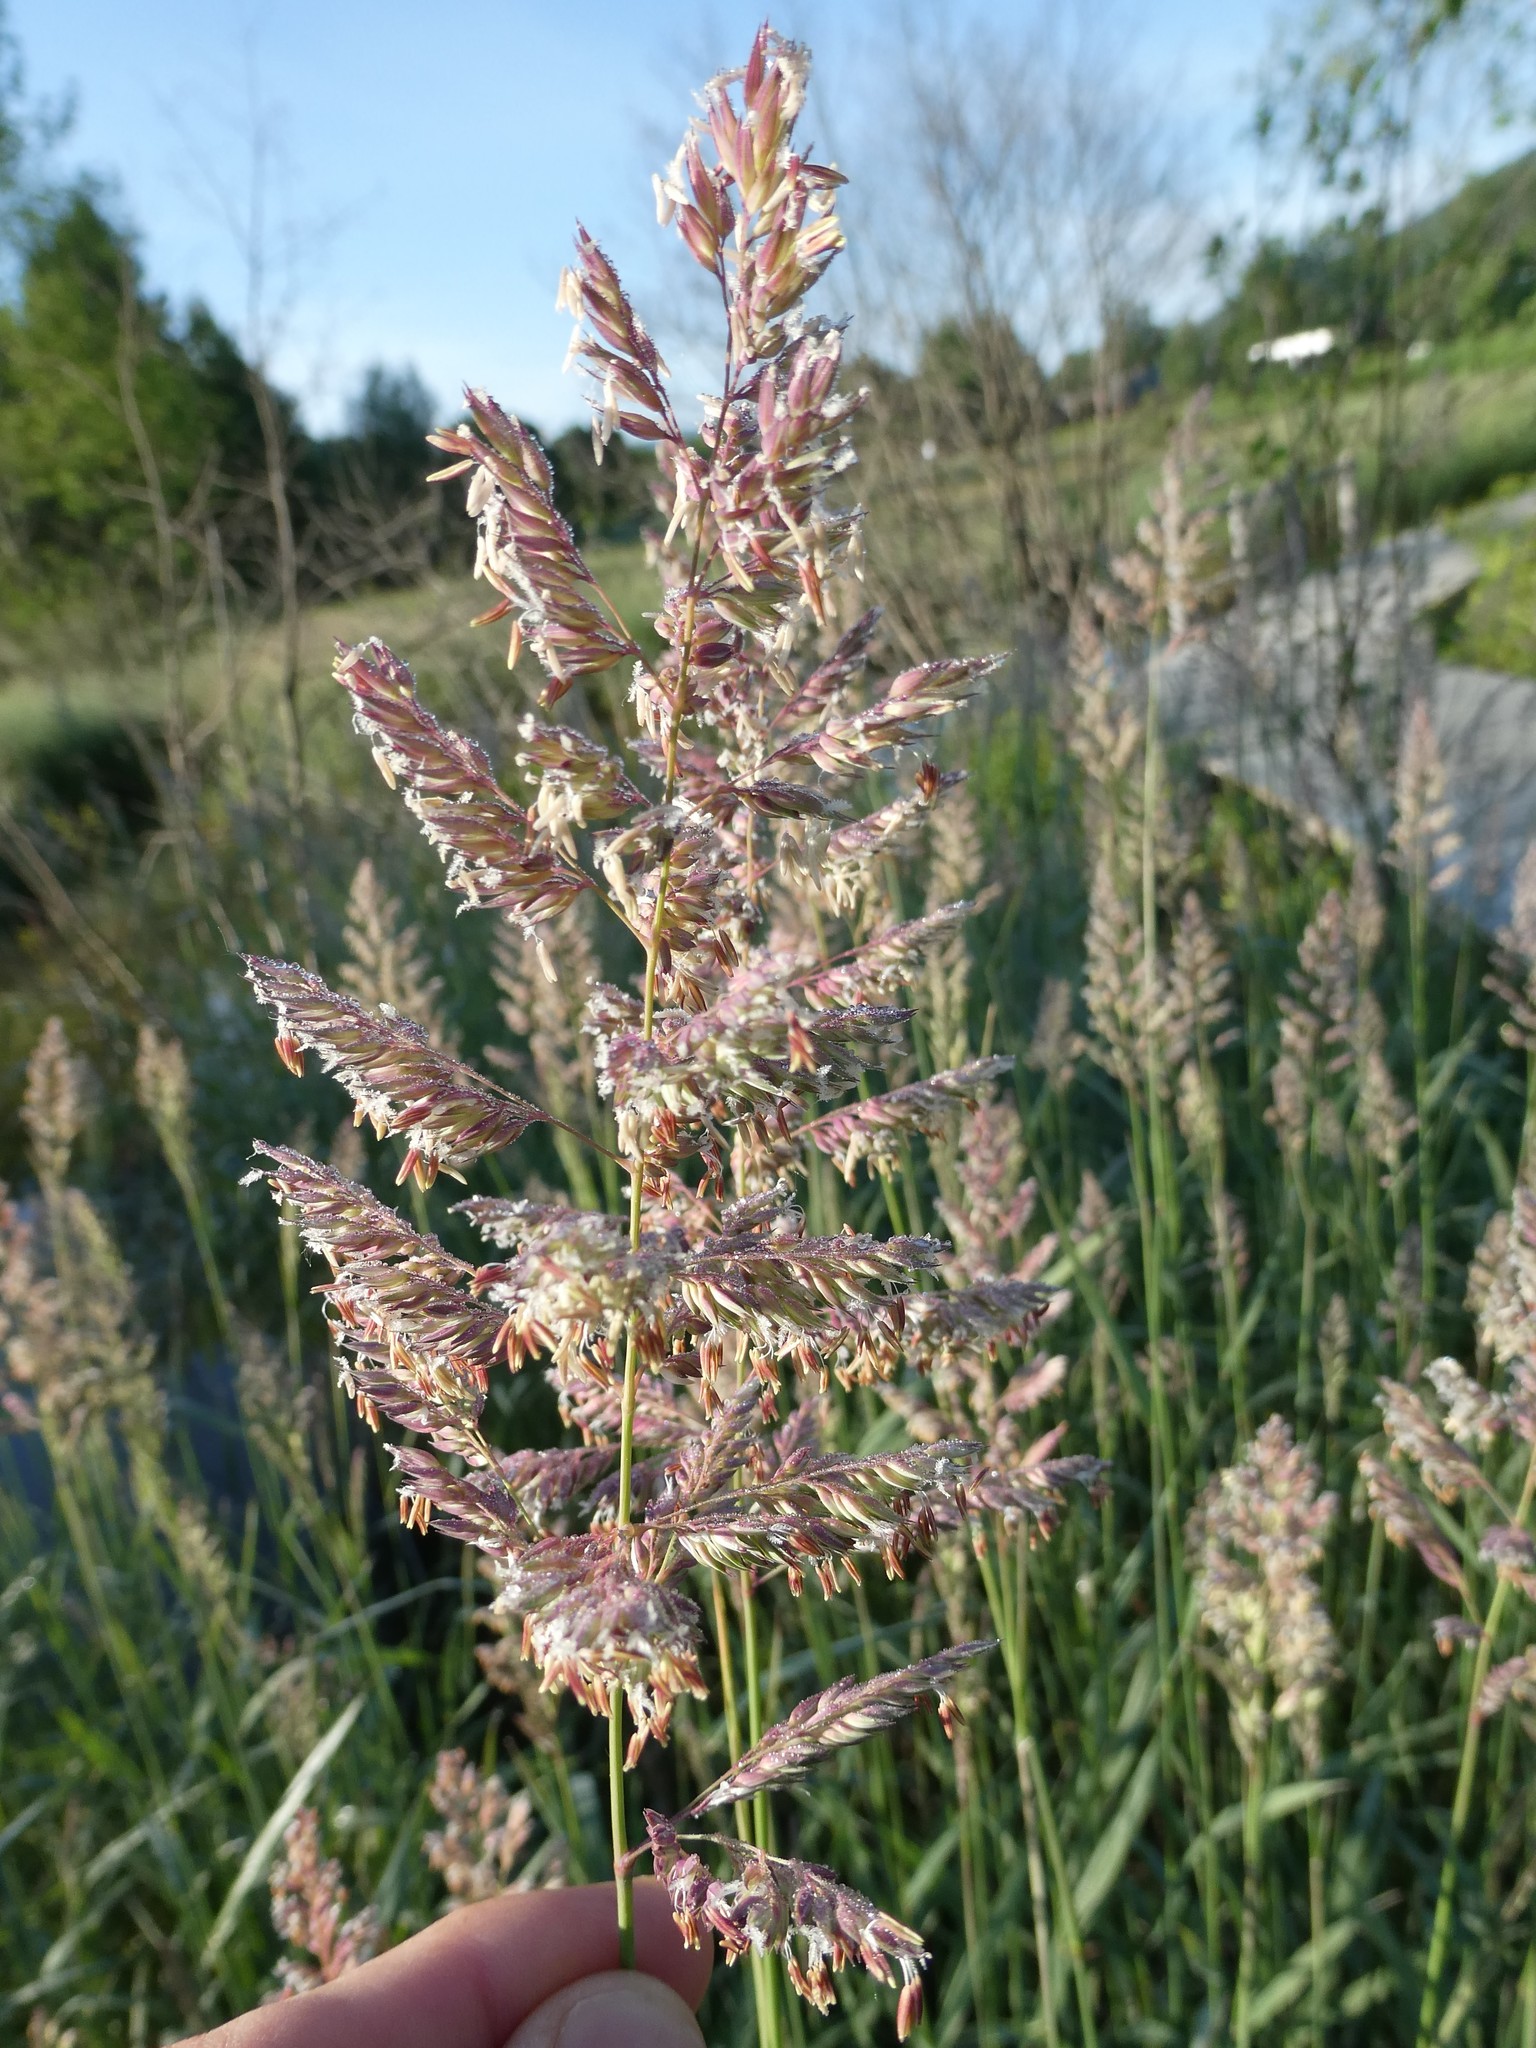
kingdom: Plantae
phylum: Tracheophyta
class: Liliopsida
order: Poales
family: Poaceae
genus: Phalaris
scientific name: Phalaris arundinacea
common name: Reed canary-grass
